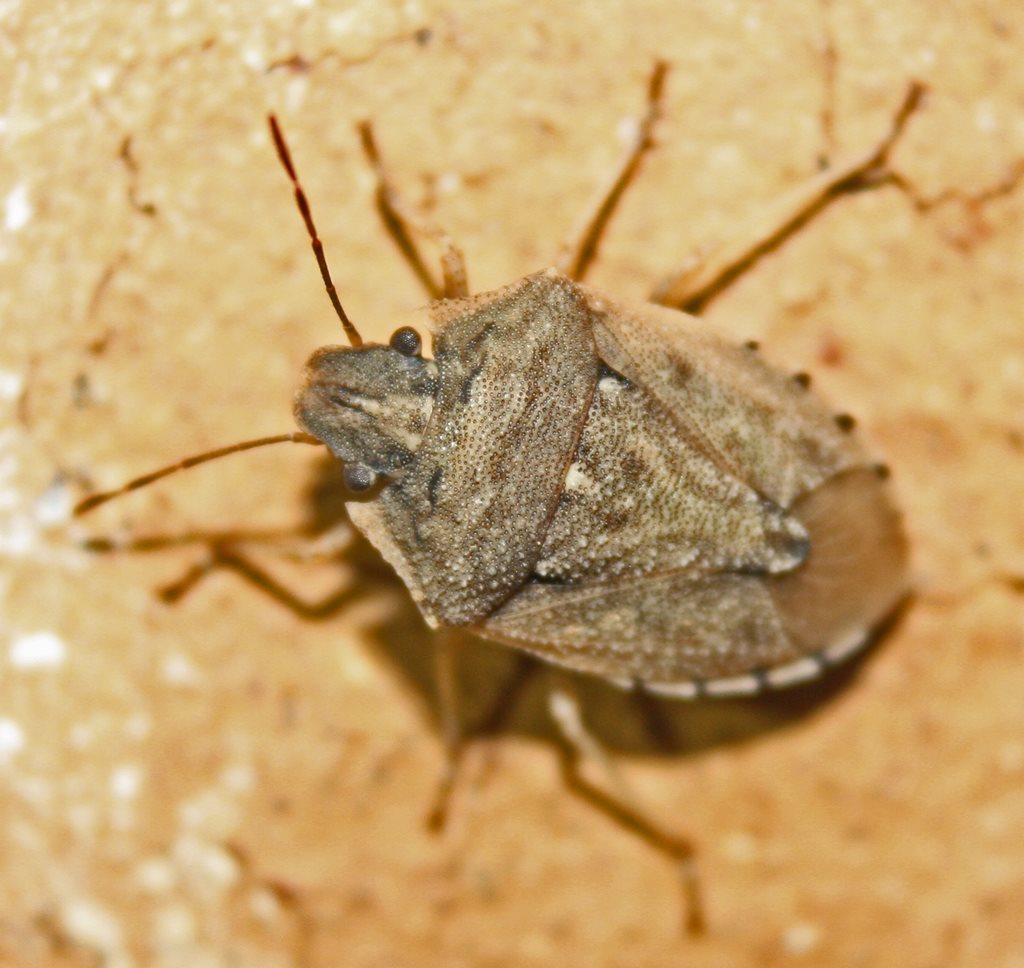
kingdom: Animalia
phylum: Arthropoda
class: Insecta
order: Hemiptera
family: Pentatomidae
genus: Cephaloplatus
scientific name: Cephaloplatus
